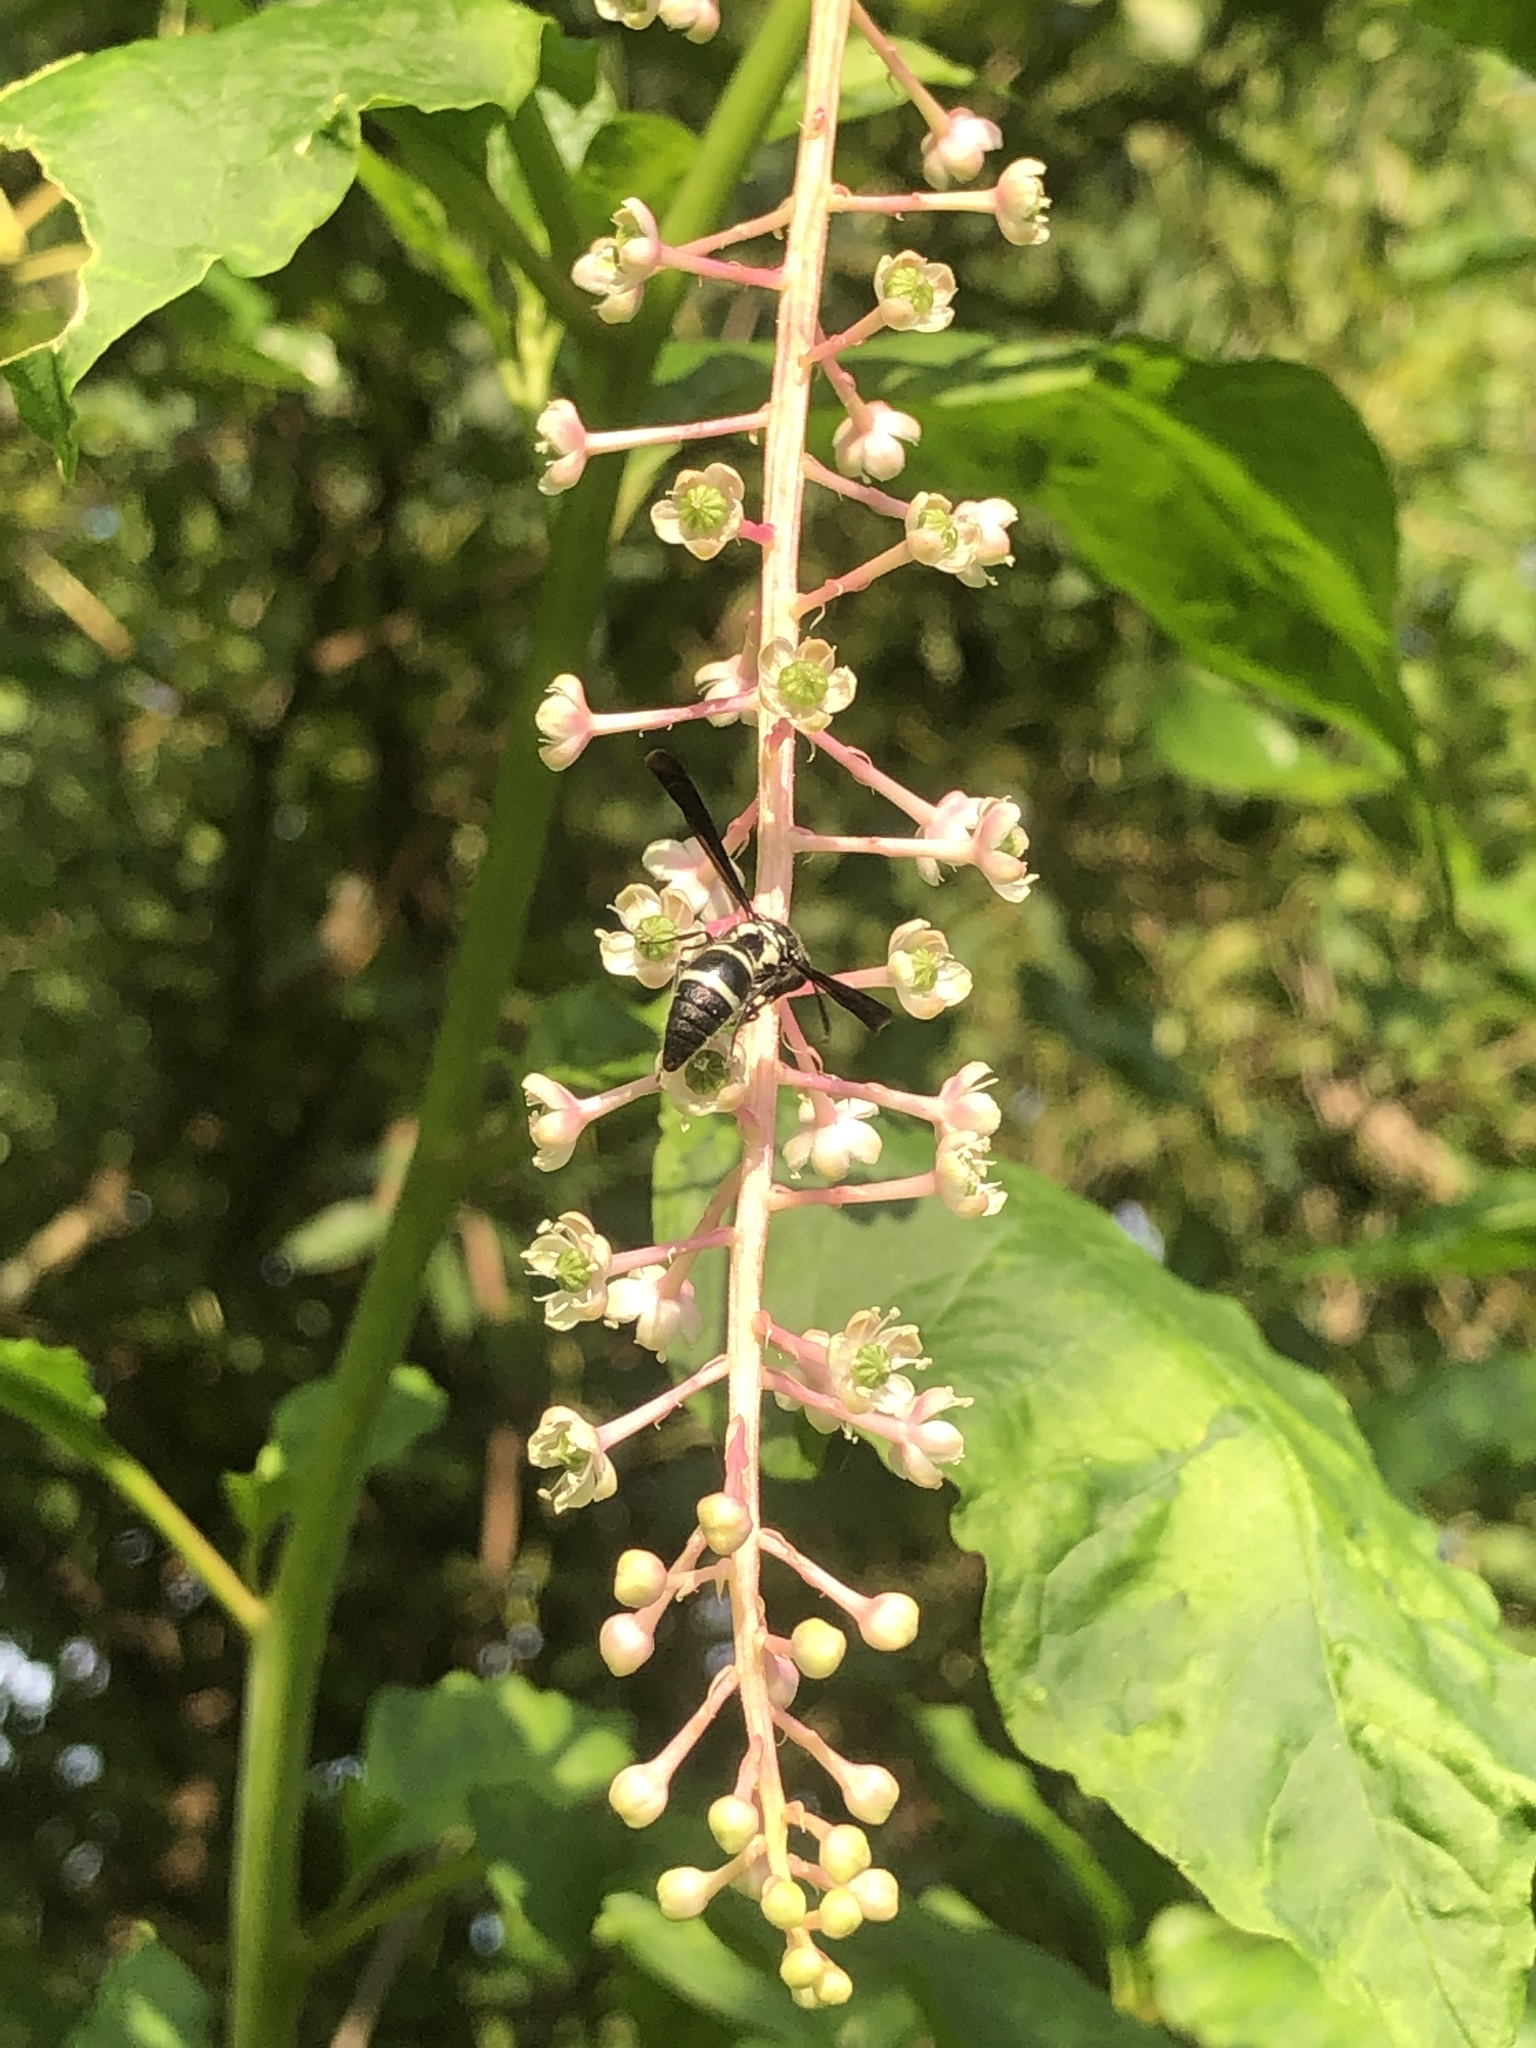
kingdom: Animalia
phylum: Arthropoda
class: Insecta
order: Hymenoptera
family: Eumenidae
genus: Pseudodynerus
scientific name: Pseudodynerus quadrisectus
